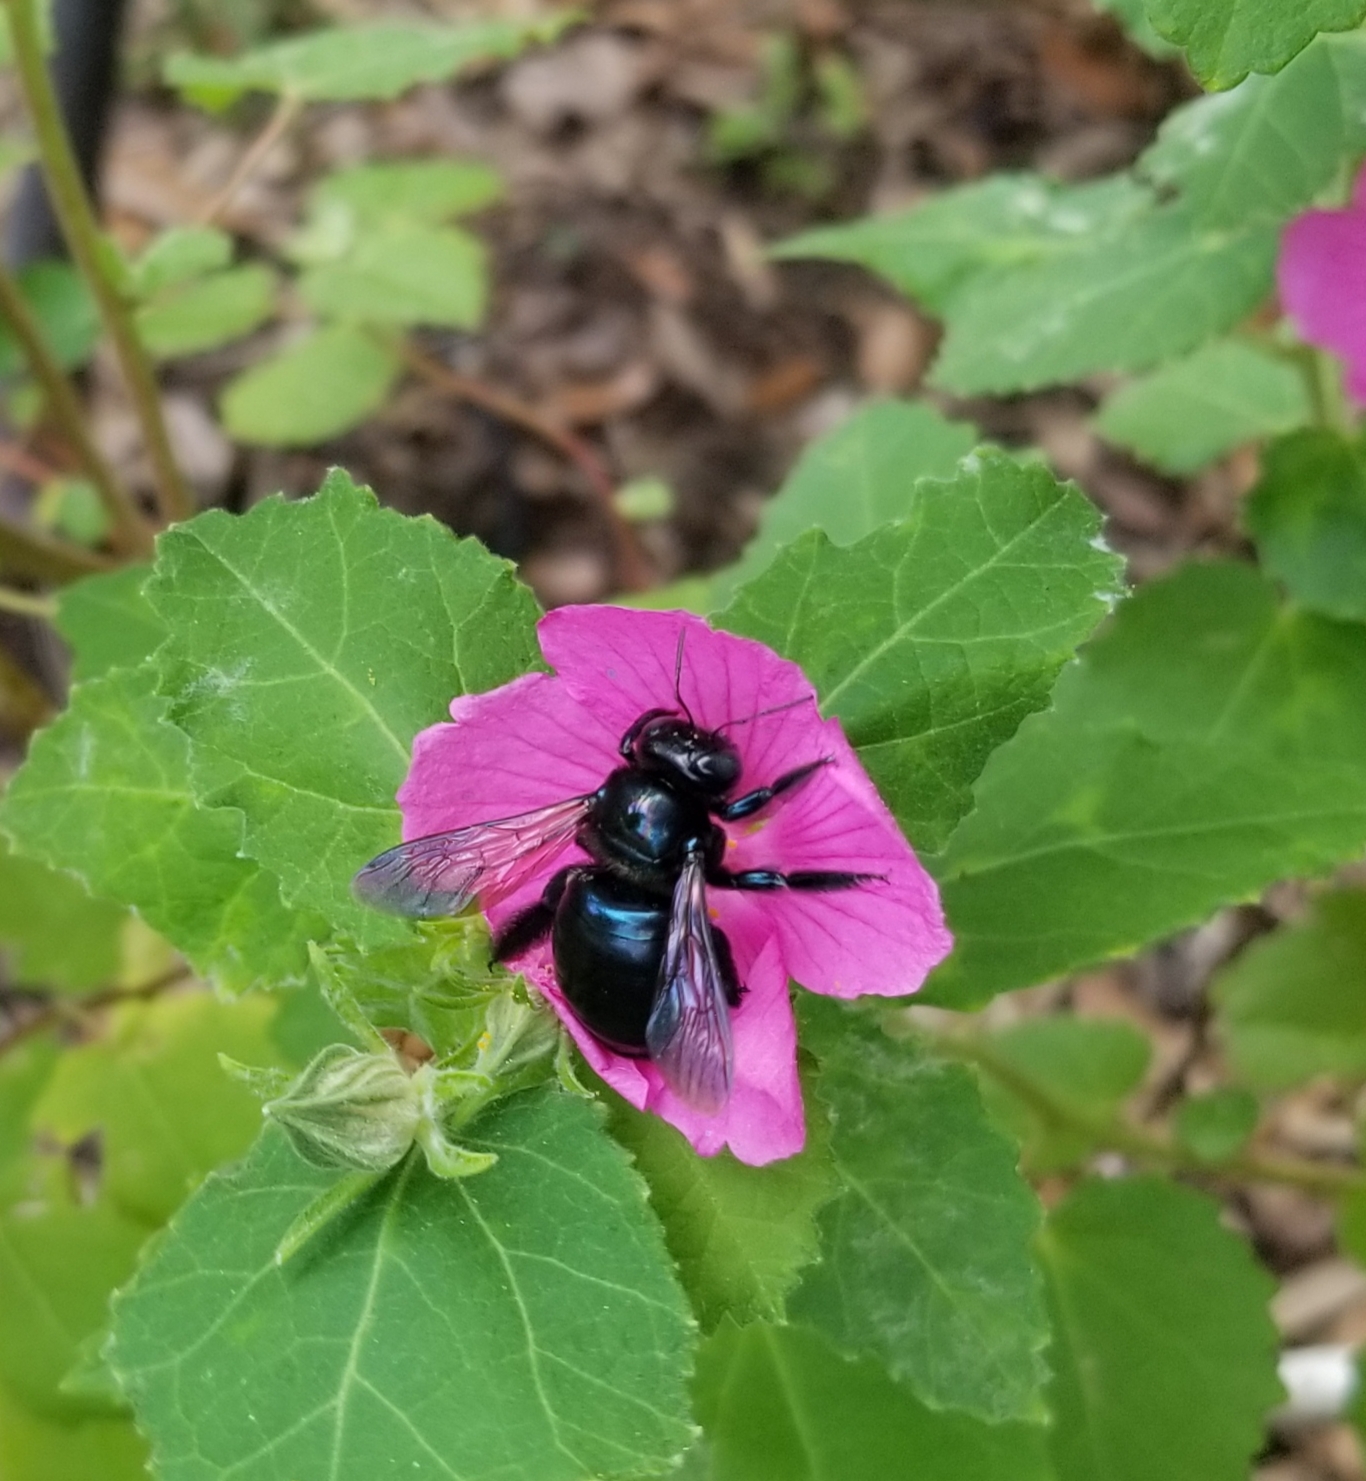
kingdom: Animalia
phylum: Arthropoda
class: Insecta
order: Hymenoptera
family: Apidae
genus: Xylocopa
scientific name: Xylocopa micans
